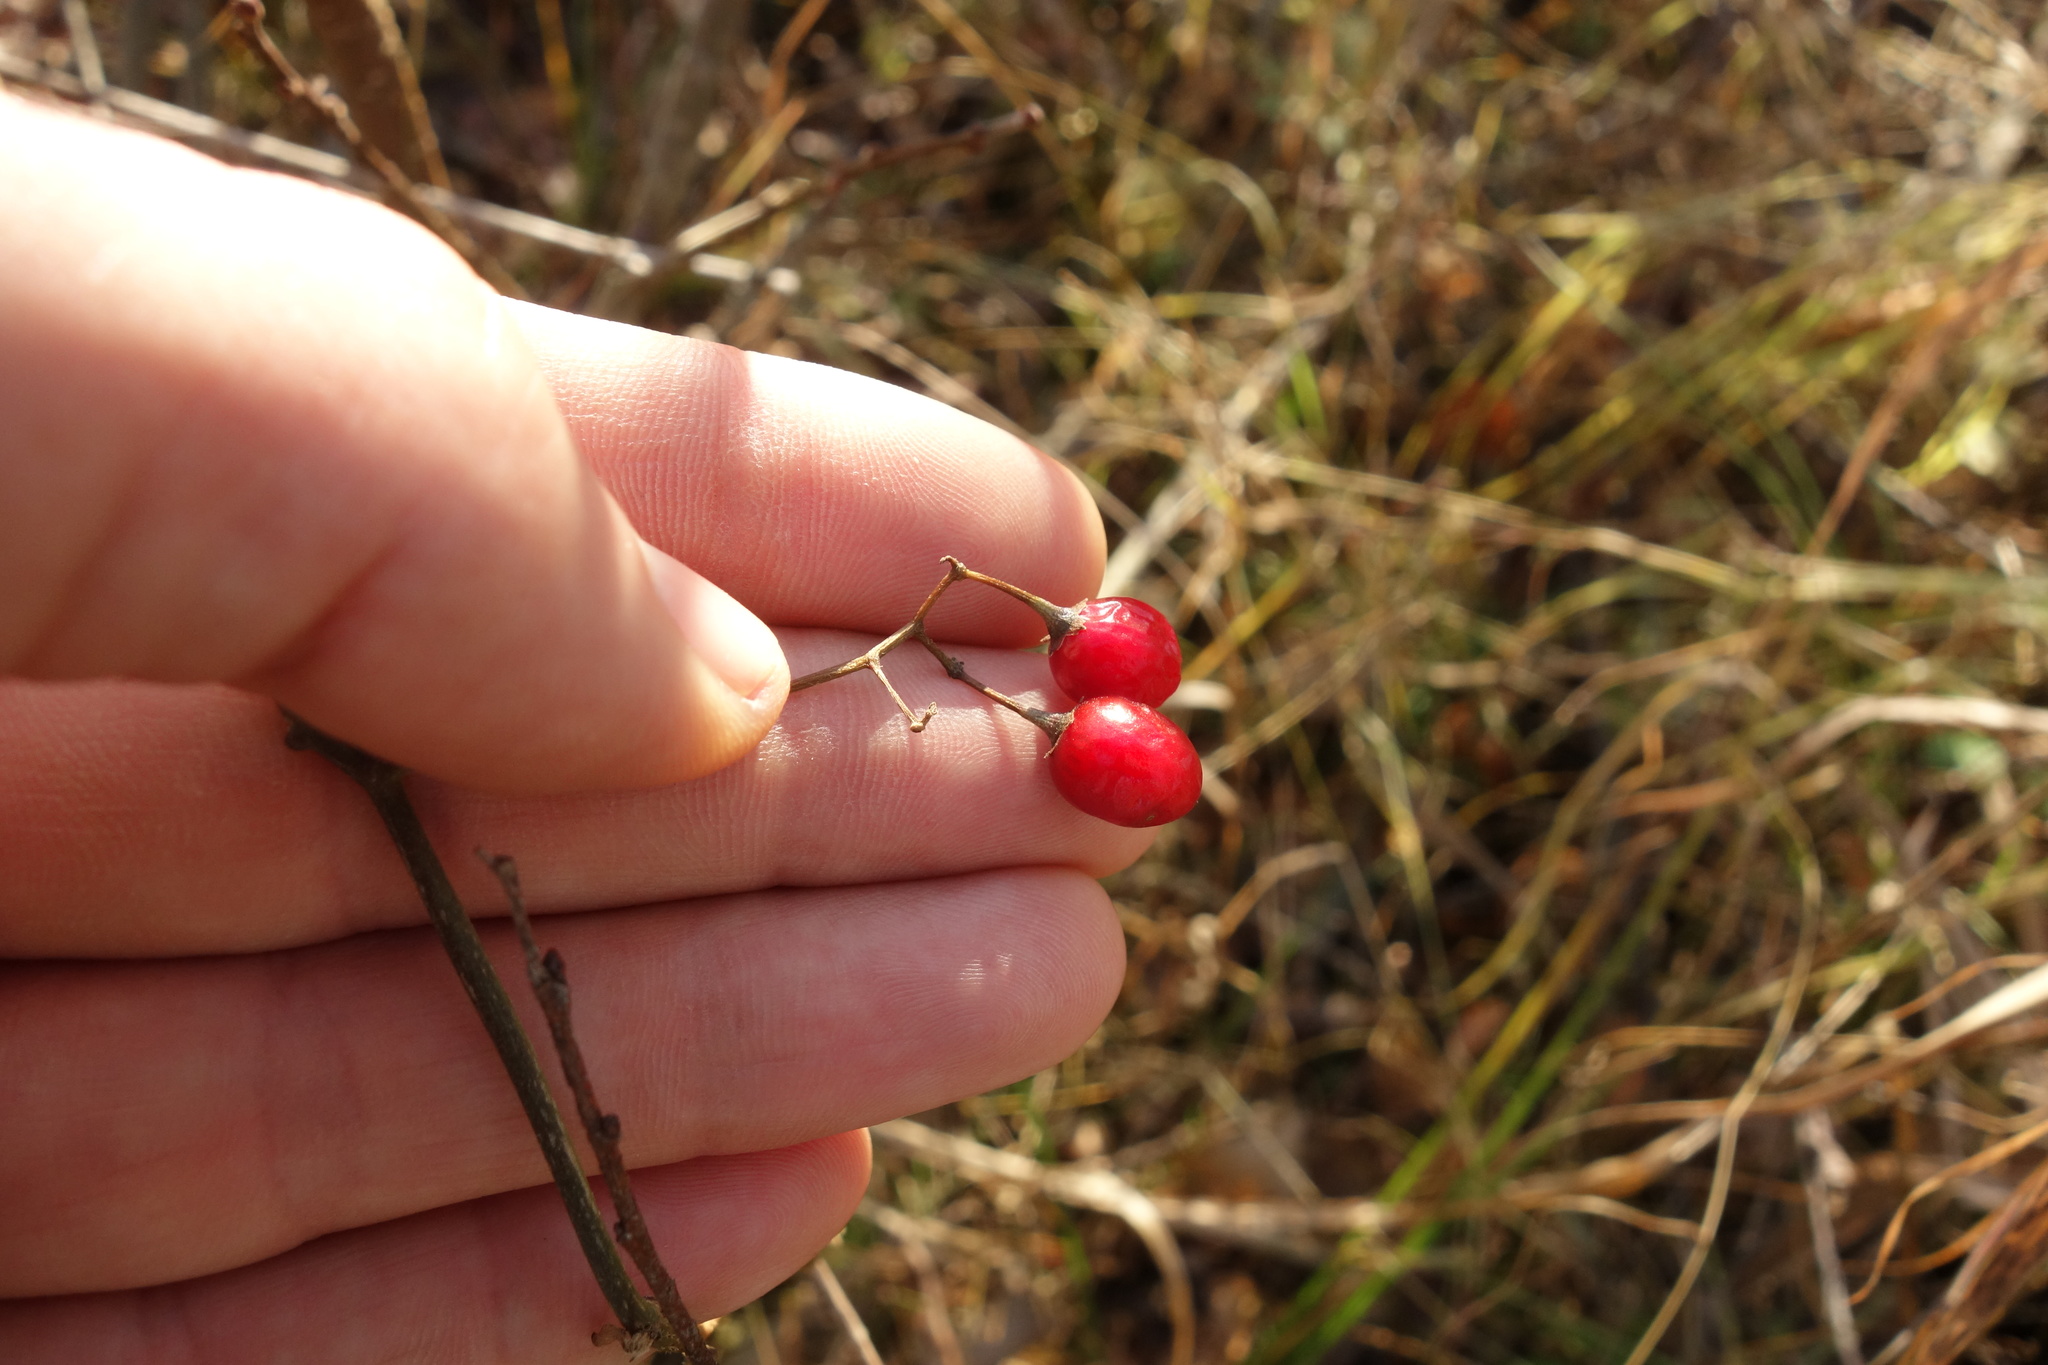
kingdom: Plantae
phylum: Tracheophyta
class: Magnoliopsida
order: Solanales
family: Solanaceae
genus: Solanum
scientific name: Solanum dulcamara
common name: Climbing nightshade
